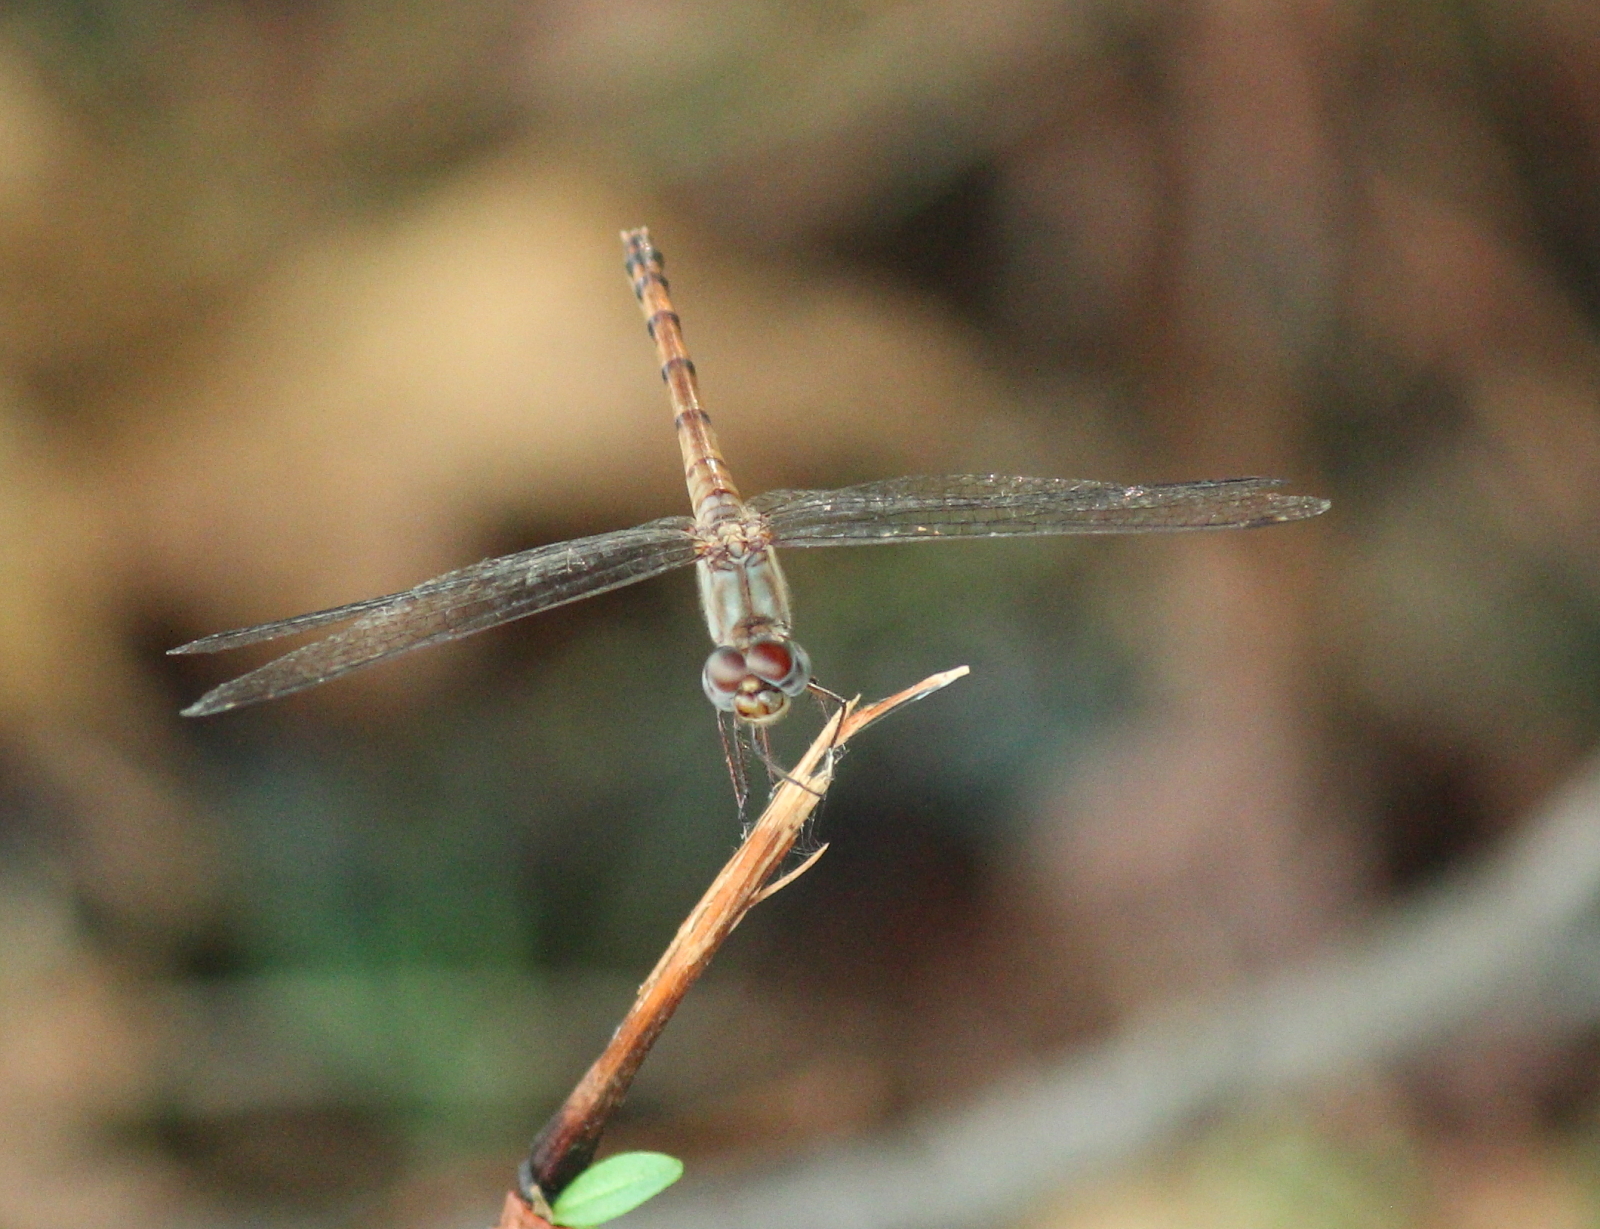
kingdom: Animalia
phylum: Arthropoda
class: Insecta
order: Odonata
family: Libellulidae
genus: Sympetrum
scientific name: Sympetrum ambiguum
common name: Blue-faced meadowhawk
